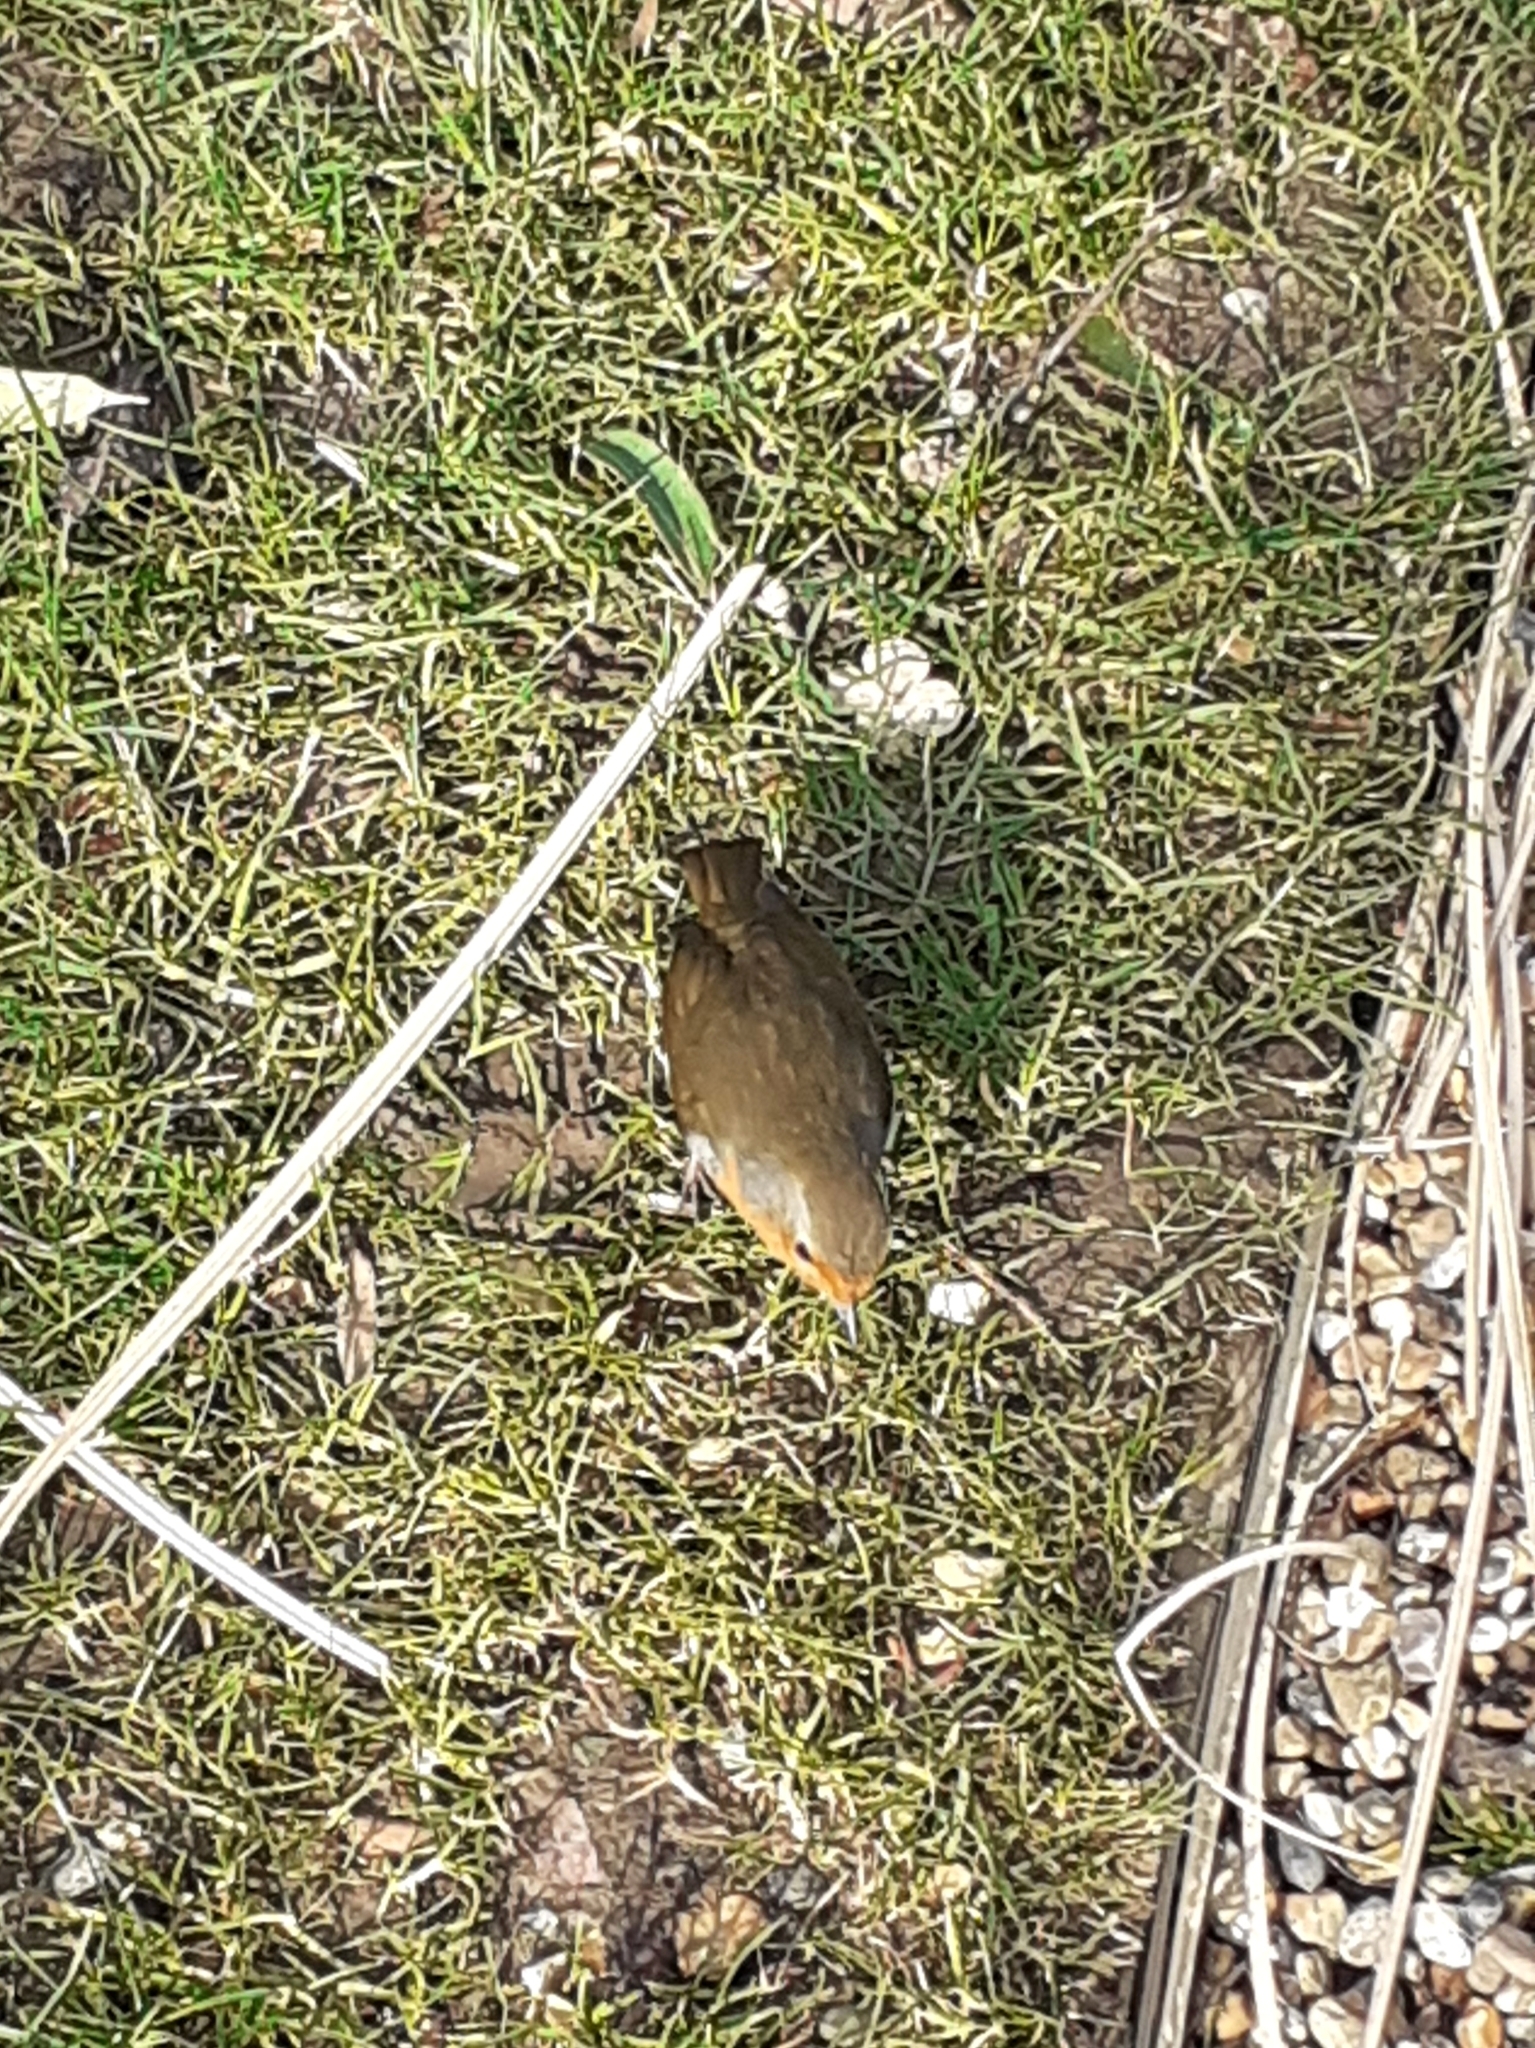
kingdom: Animalia
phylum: Chordata
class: Aves
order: Passeriformes
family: Muscicapidae
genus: Erithacus
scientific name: Erithacus rubecula
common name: European robin
